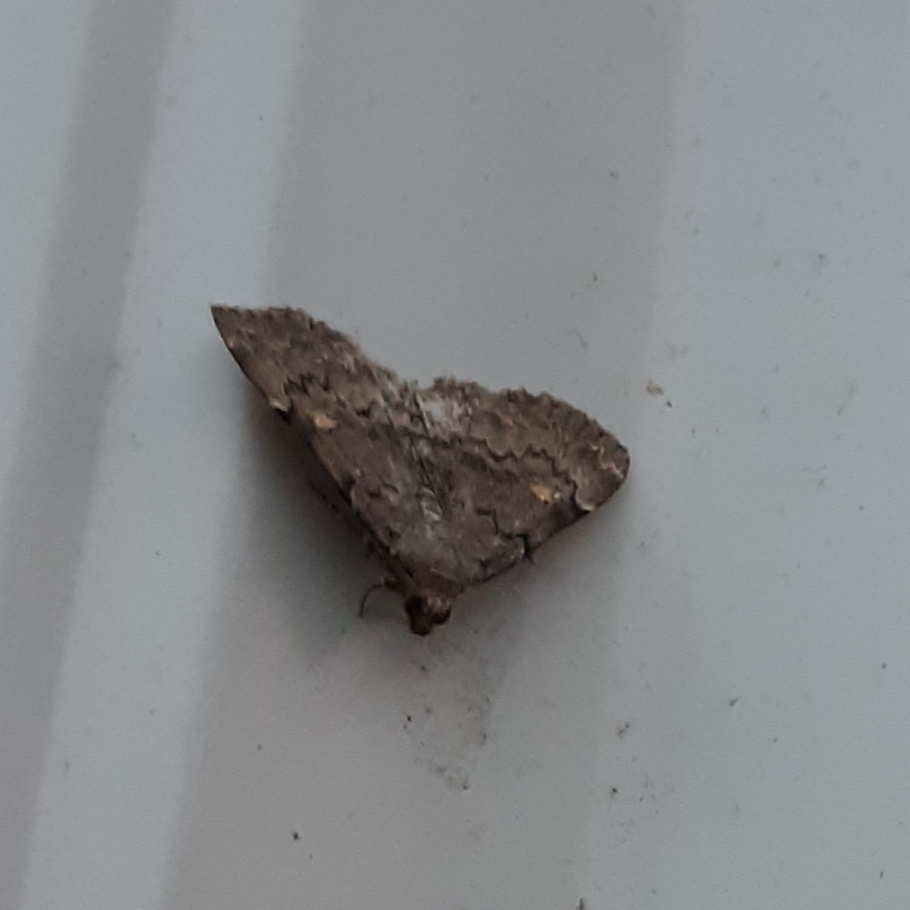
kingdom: Animalia
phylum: Arthropoda
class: Insecta
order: Lepidoptera
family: Erebidae
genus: Idia
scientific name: Idia aemula
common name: Common idia moth
